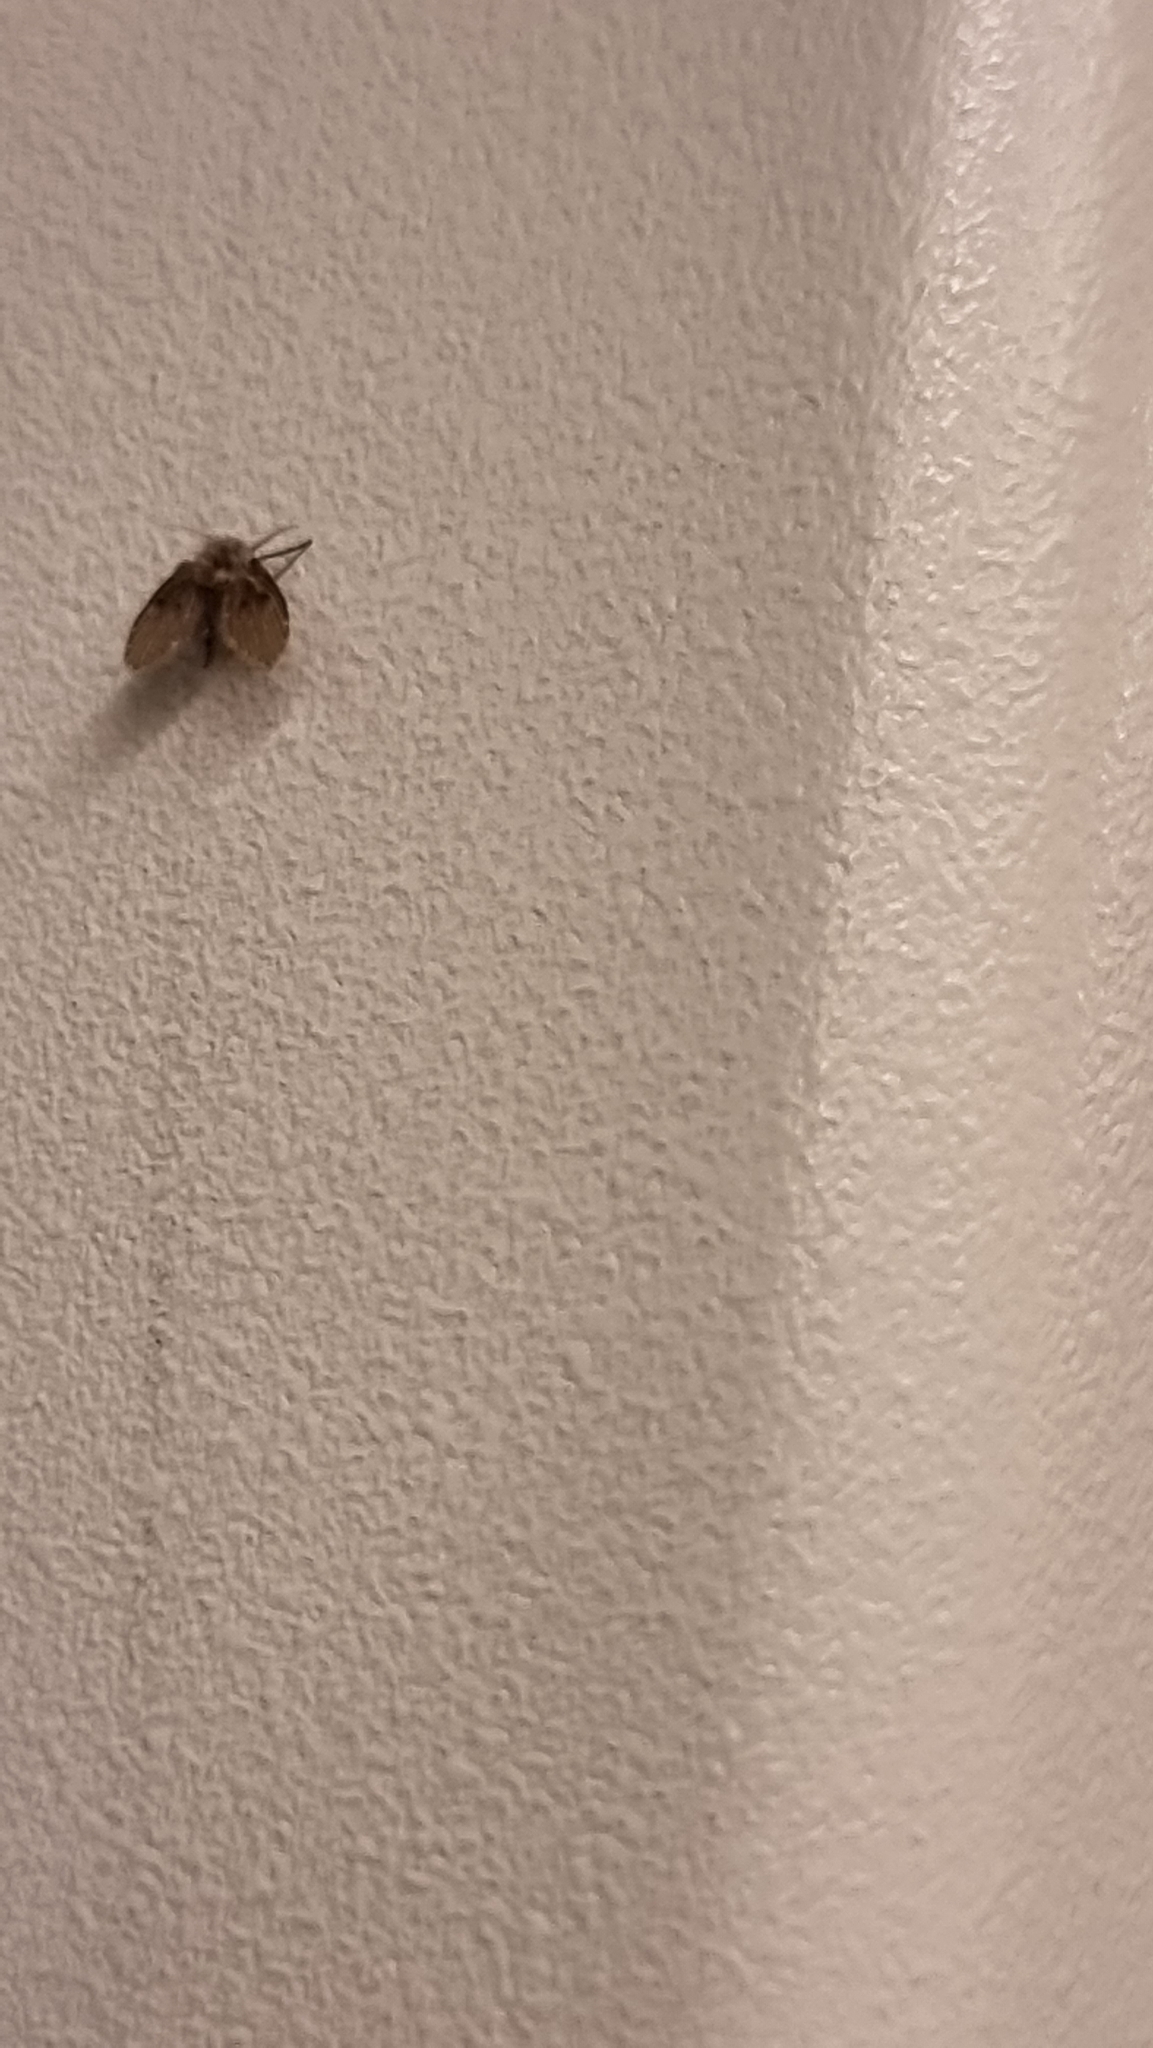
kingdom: Animalia
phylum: Arthropoda
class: Insecta
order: Diptera
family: Psychodidae
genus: Clogmia
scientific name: Clogmia albipunctatus
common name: White-spotted moth fly
